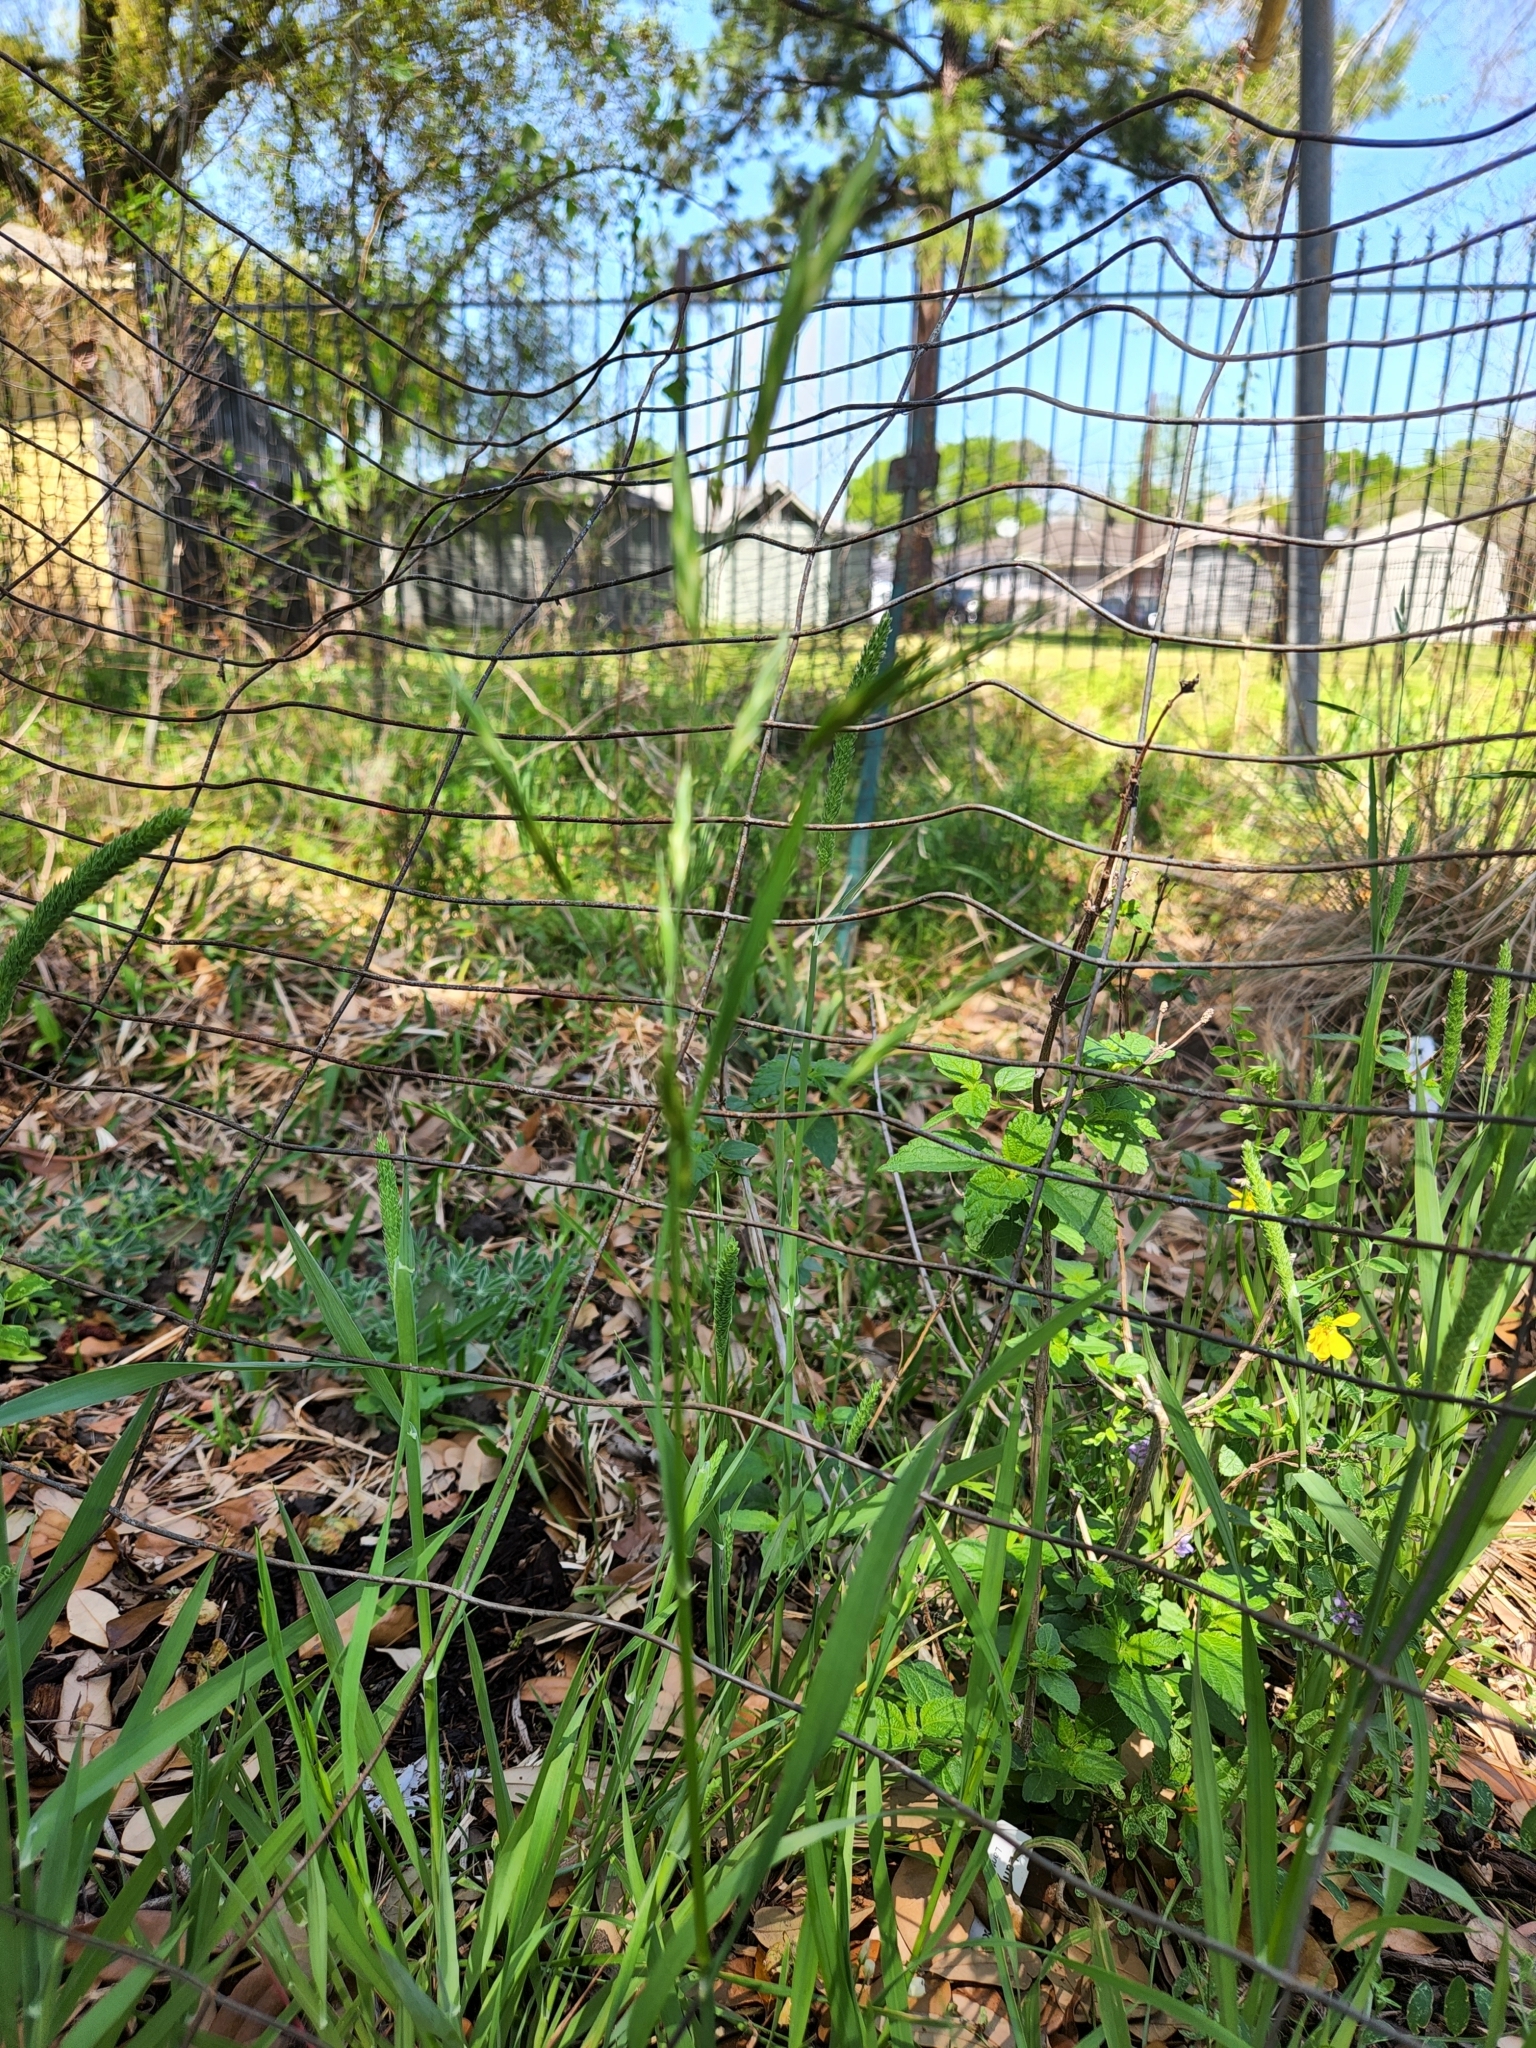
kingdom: Plantae
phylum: Tracheophyta
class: Liliopsida
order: Poales
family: Poaceae
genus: Bromus
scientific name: Bromus catharticus
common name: Rescuegrass
